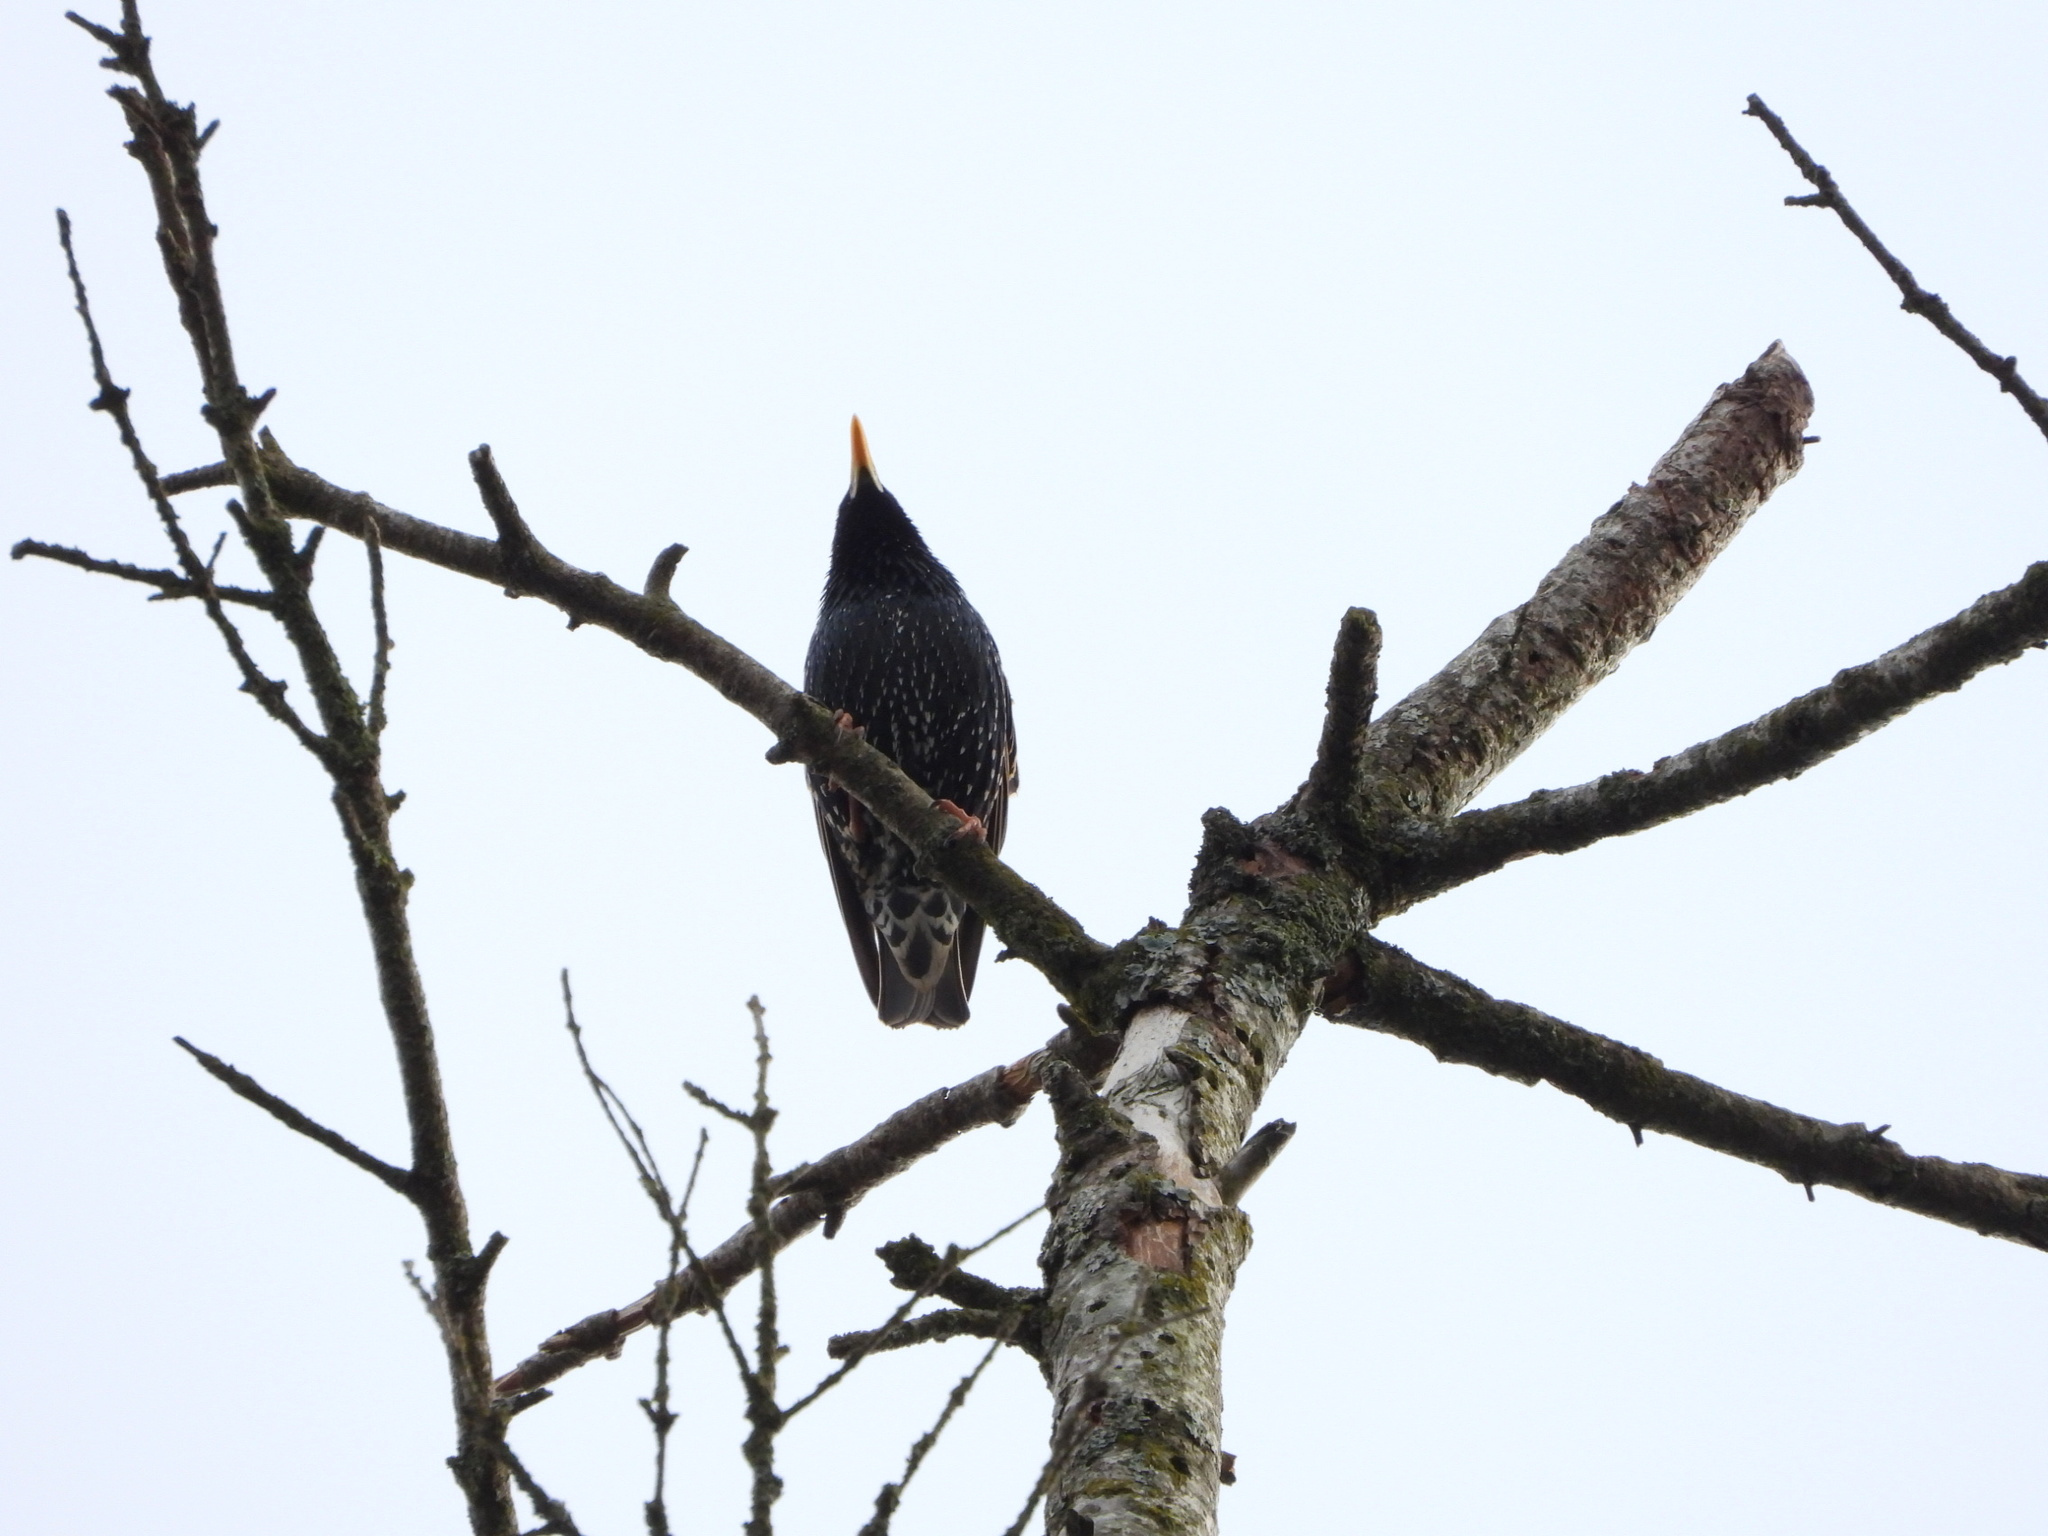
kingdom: Animalia
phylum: Chordata
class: Aves
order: Passeriformes
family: Sturnidae
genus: Sturnus
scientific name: Sturnus vulgaris
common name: Common starling
